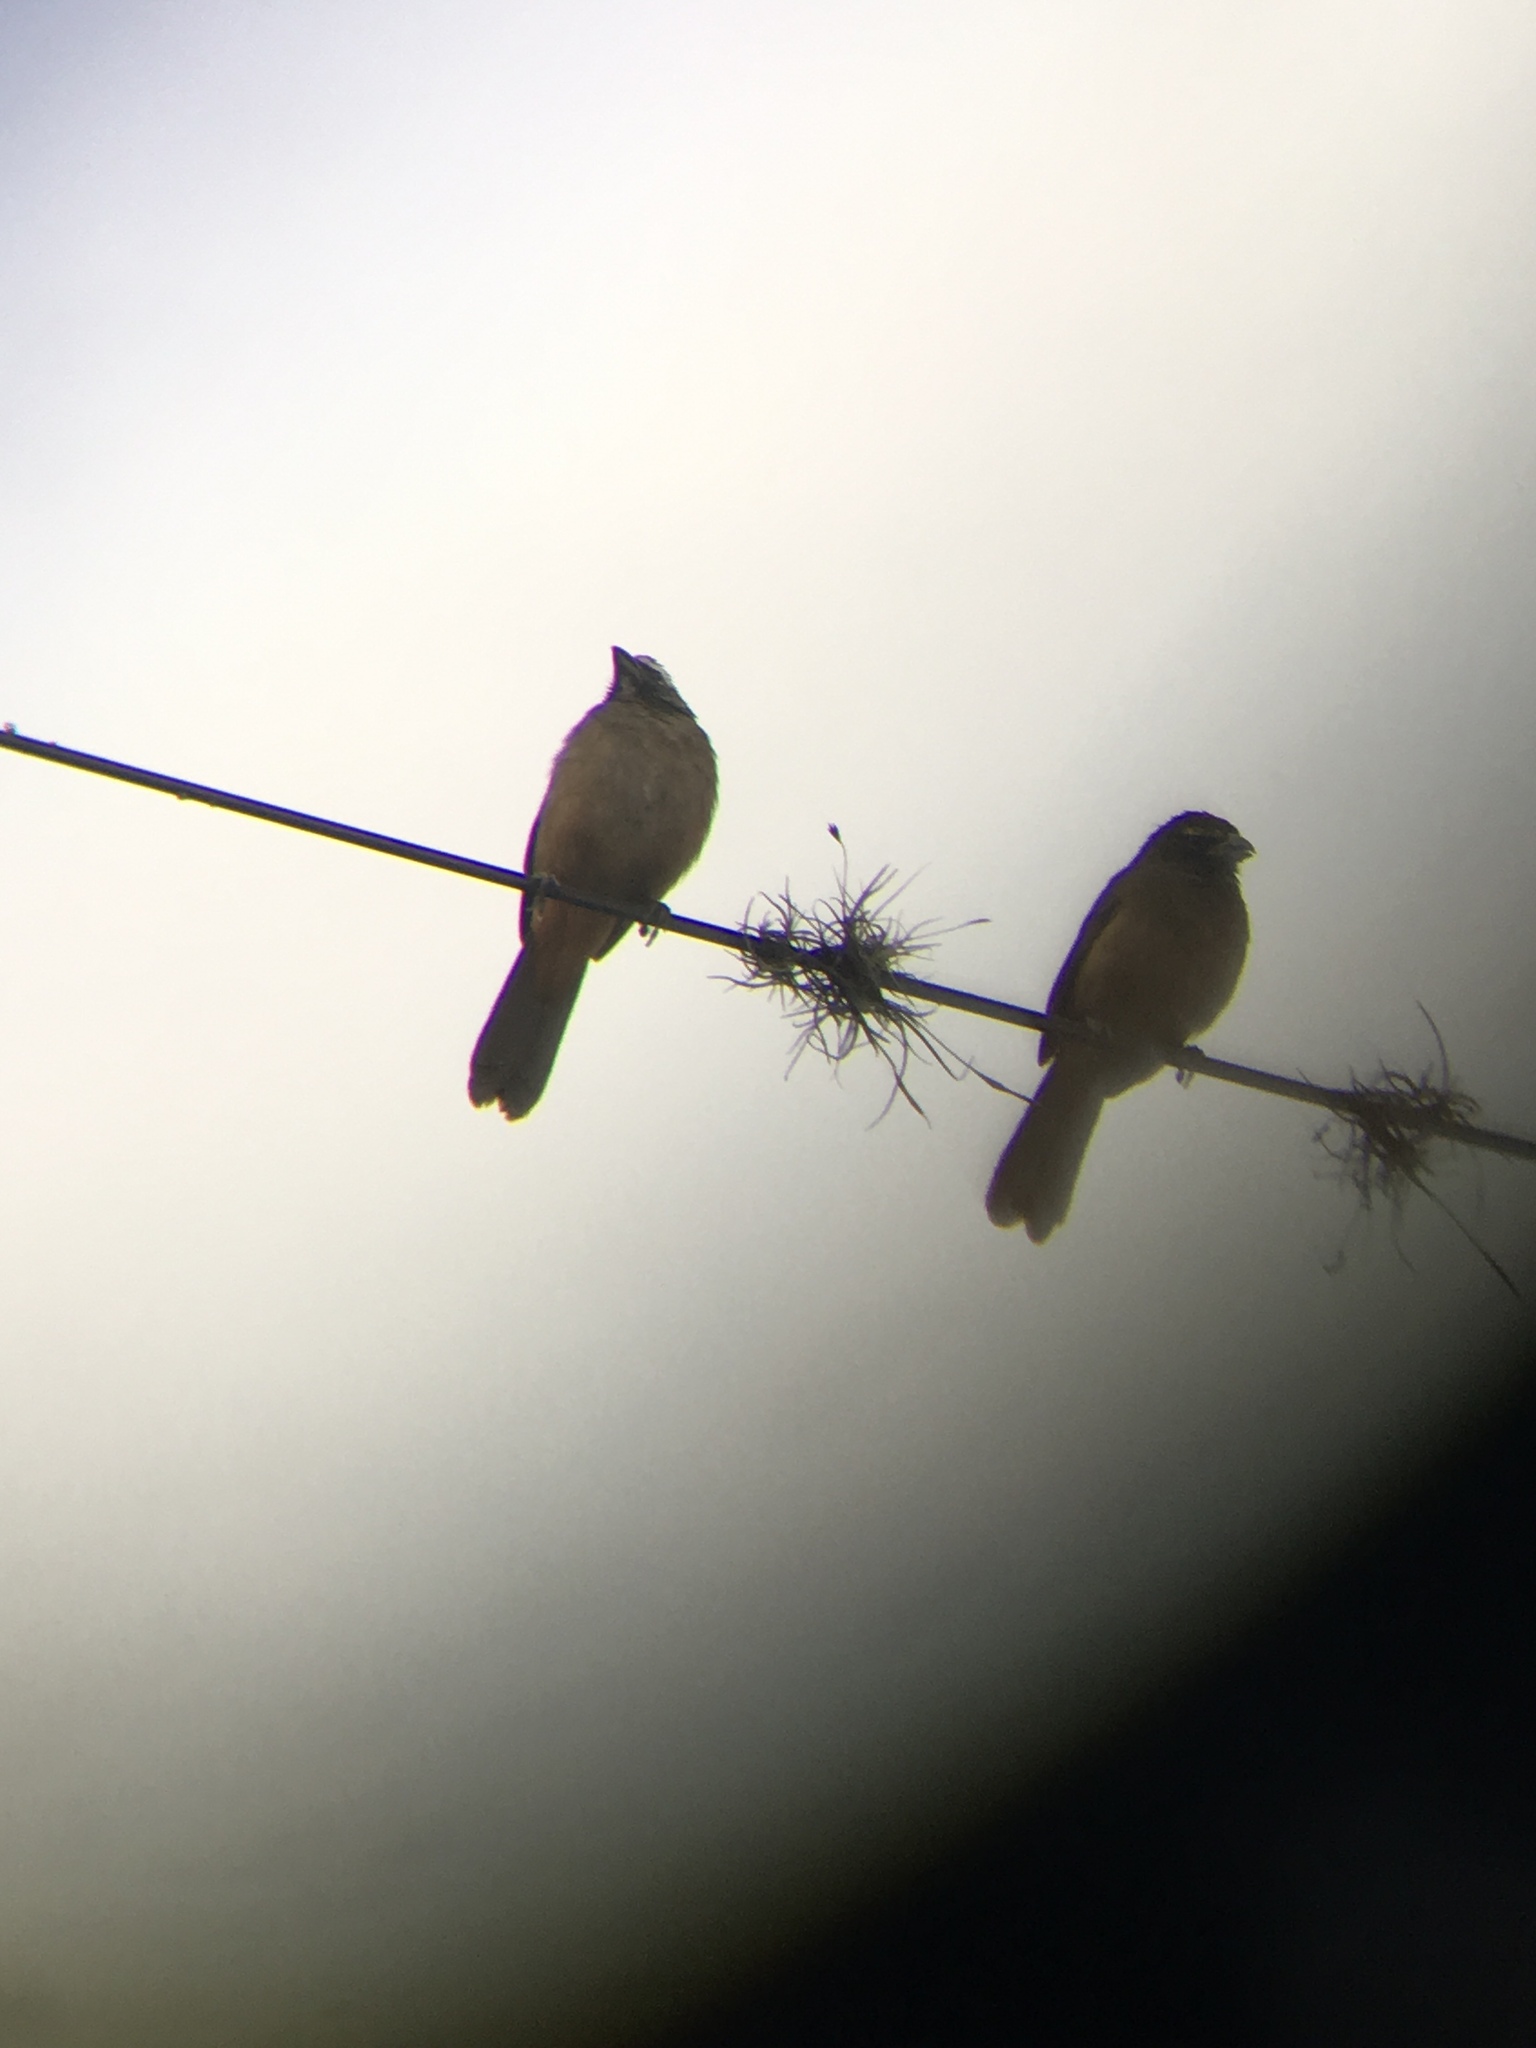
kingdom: Animalia
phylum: Chordata
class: Aves
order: Passeriformes
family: Thraupidae
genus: Saltator
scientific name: Saltator grandis
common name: Cinnamon-bellied saltator
